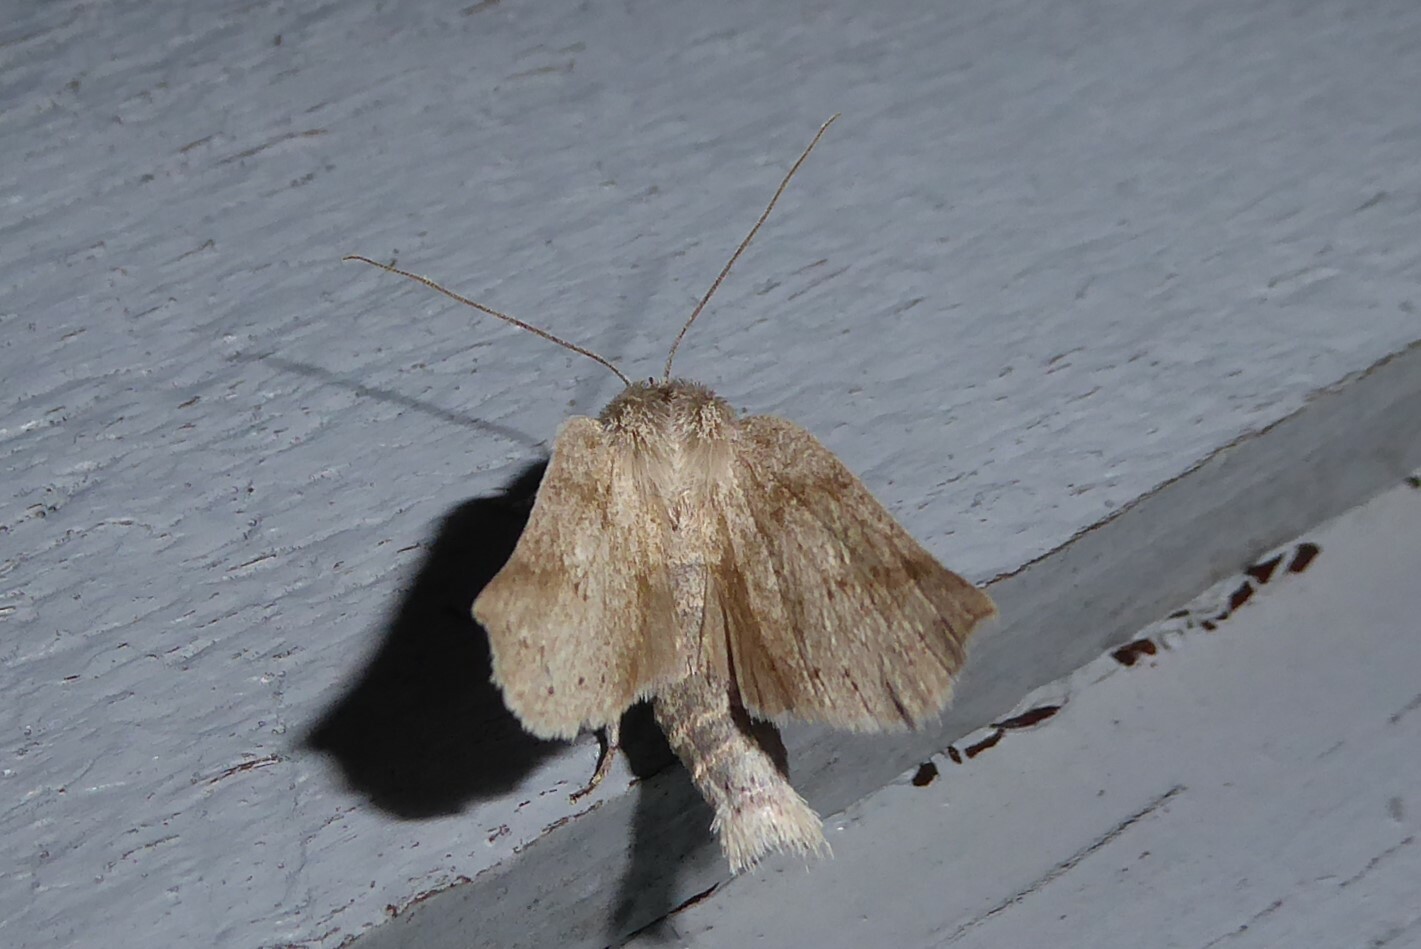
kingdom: Animalia
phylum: Arthropoda
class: Insecta
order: Lepidoptera
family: Geometridae
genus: Declana
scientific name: Declana leptomera
